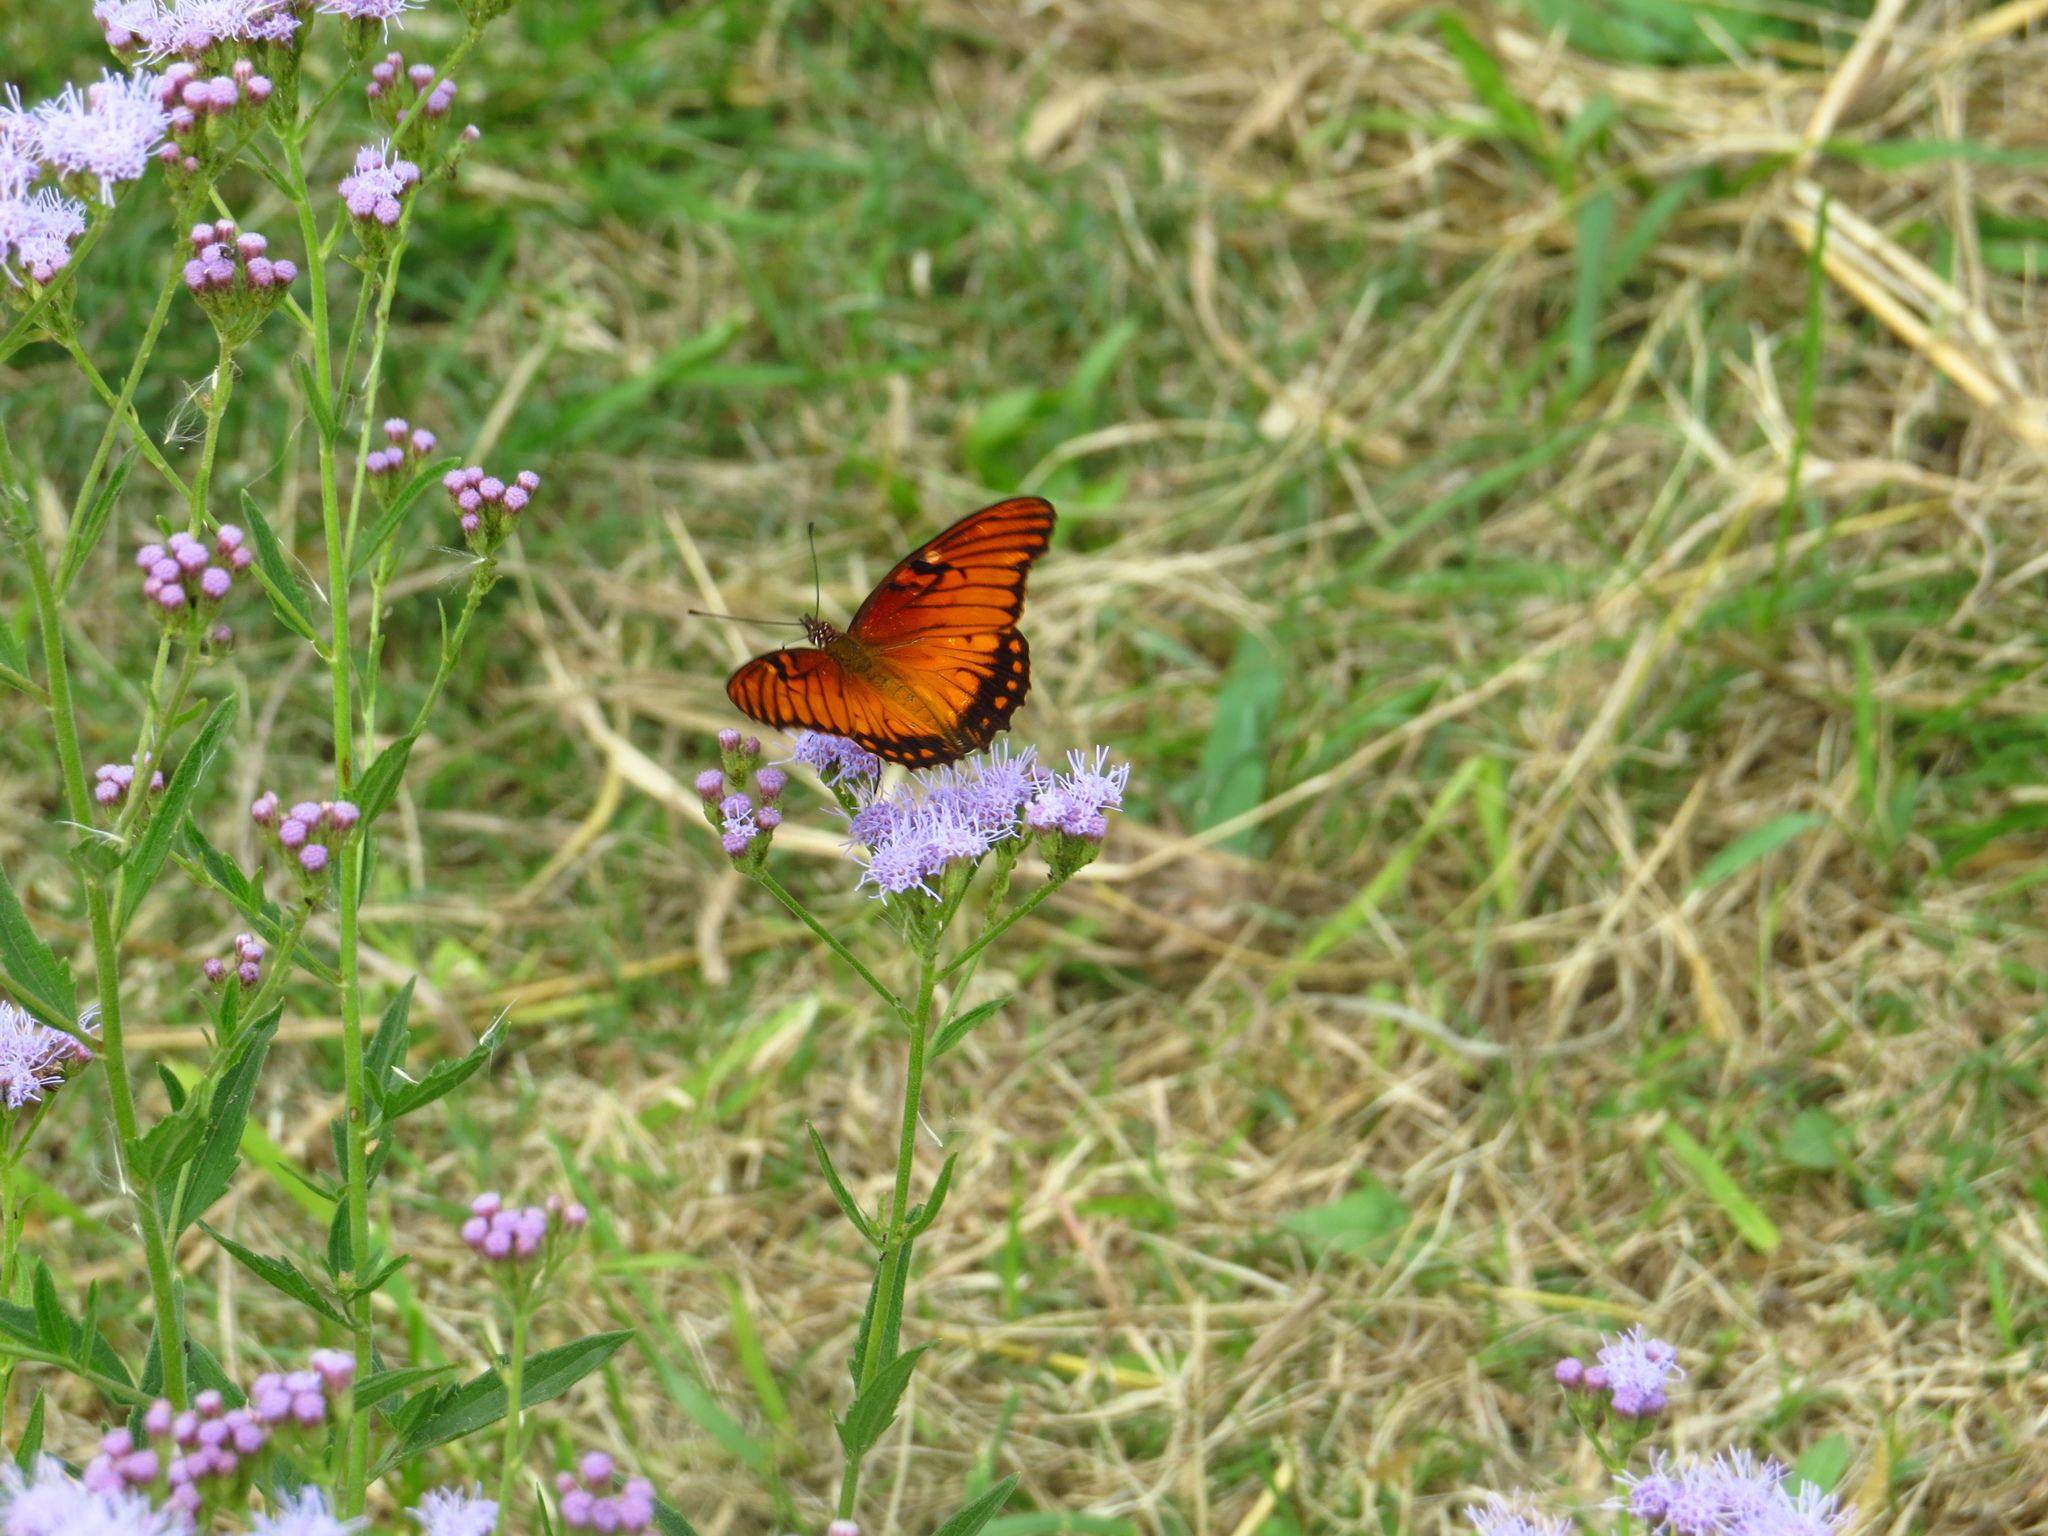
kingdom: Animalia
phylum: Arthropoda
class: Insecta
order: Lepidoptera
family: Nymphalidae
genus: Dione
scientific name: Dione moneta
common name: Mexican silverspot
